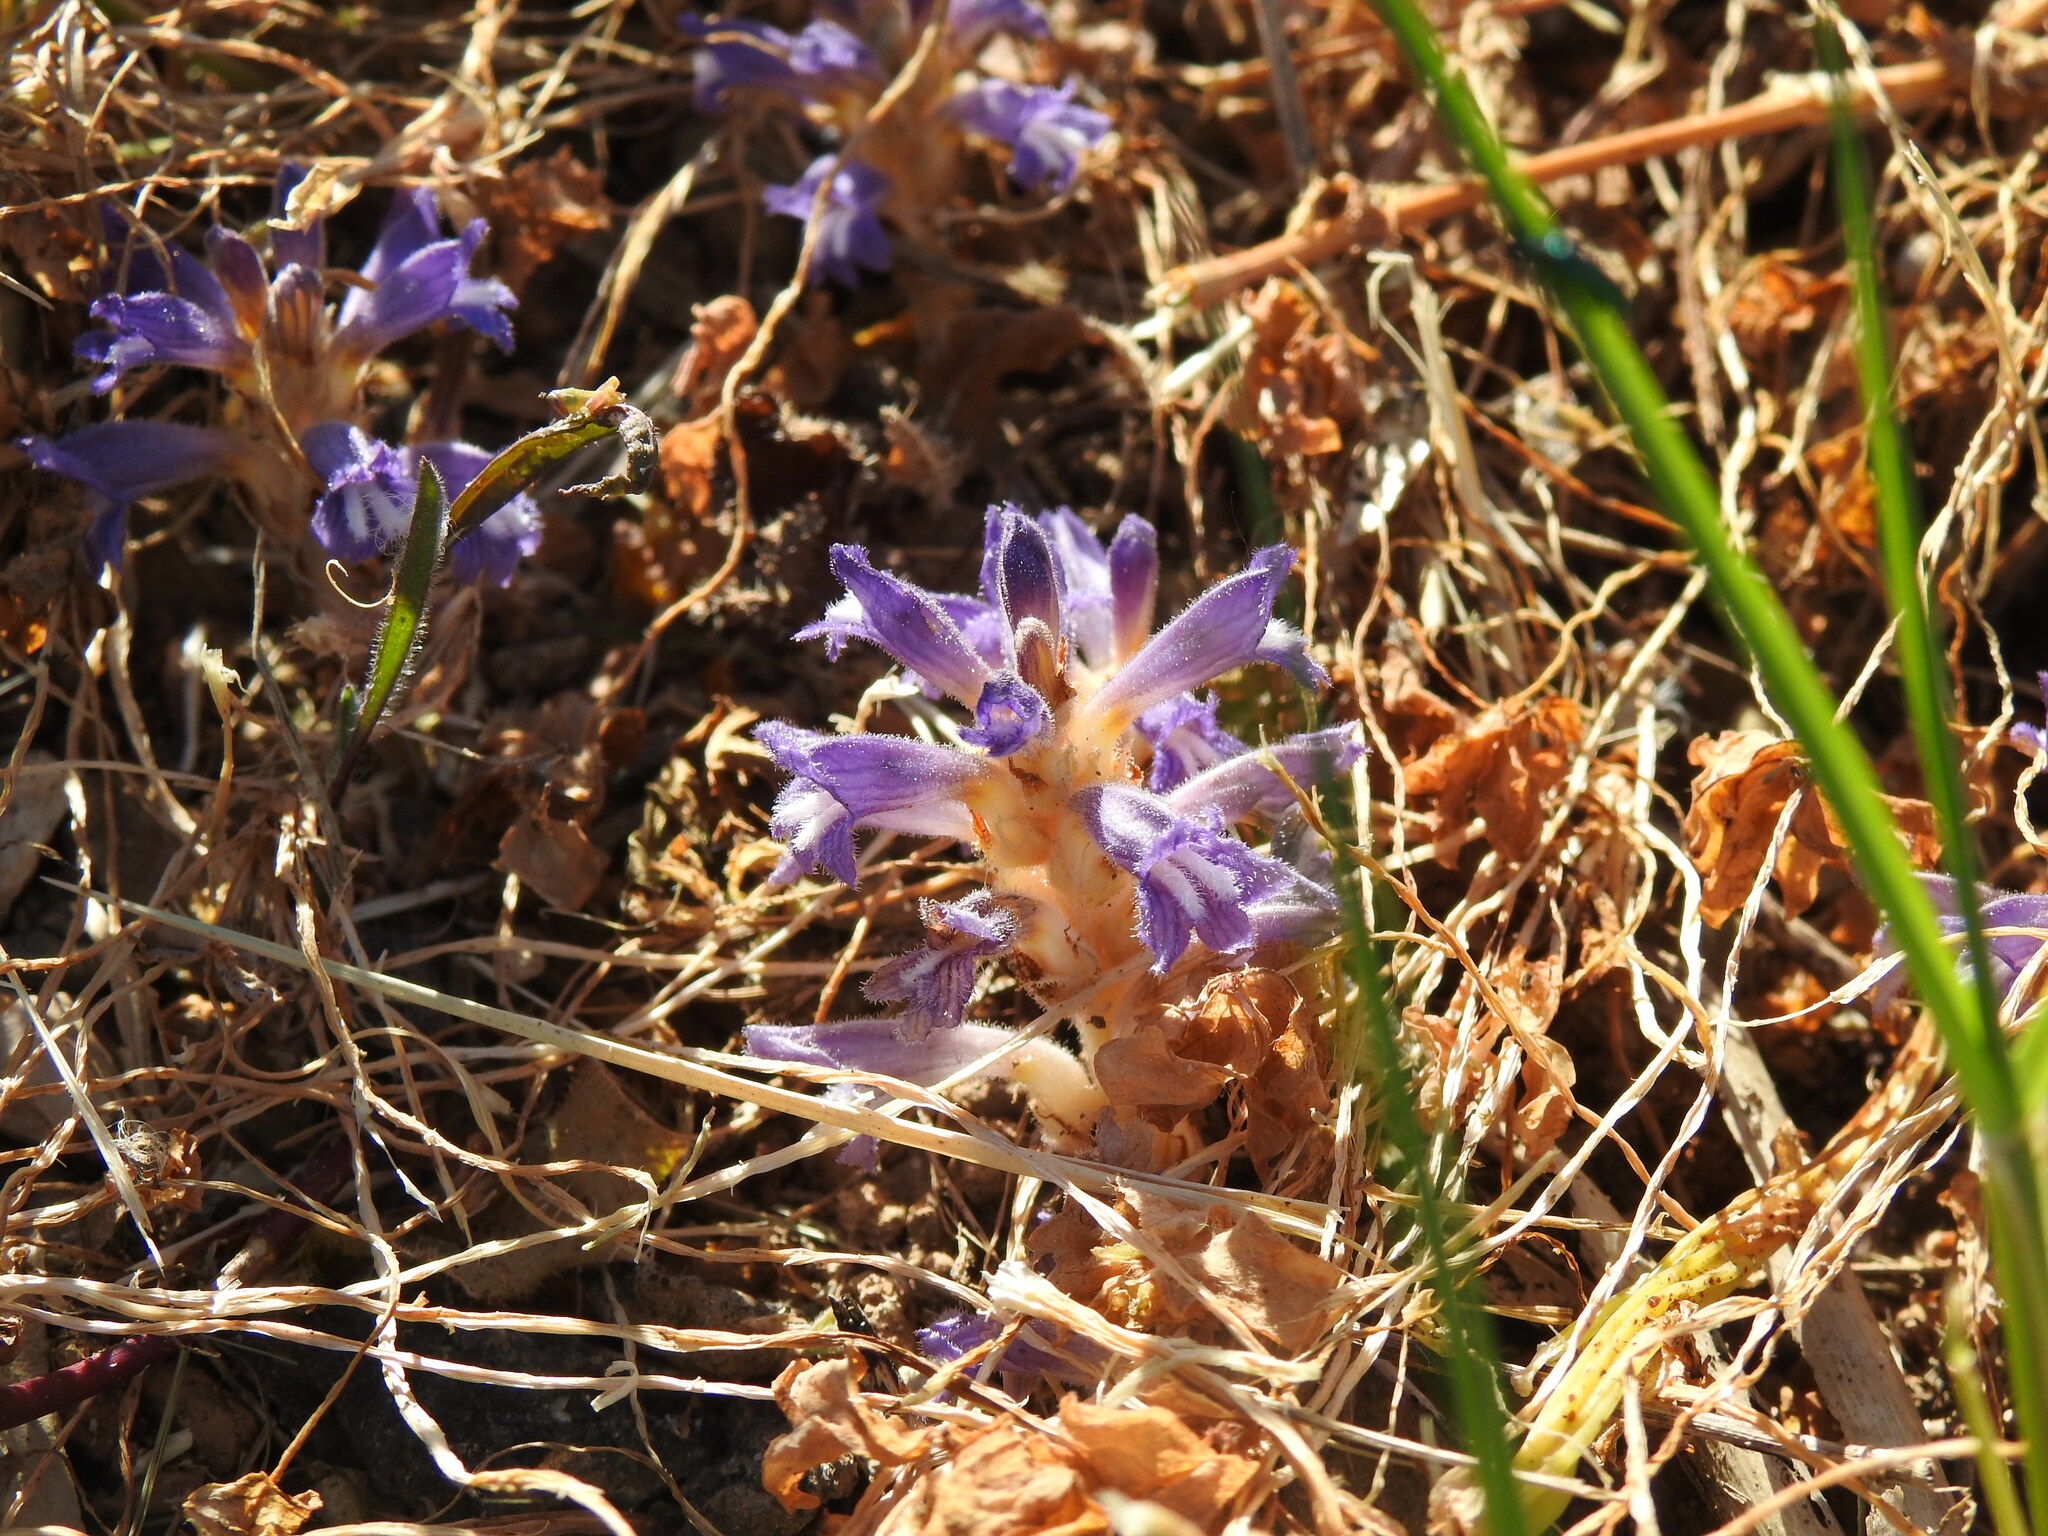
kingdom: Plantae
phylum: Tracheophyta
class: Magnoliopsida
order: Lamiales
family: Orobanchaceae
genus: Phelipanche
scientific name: Phelipanche mutelii
